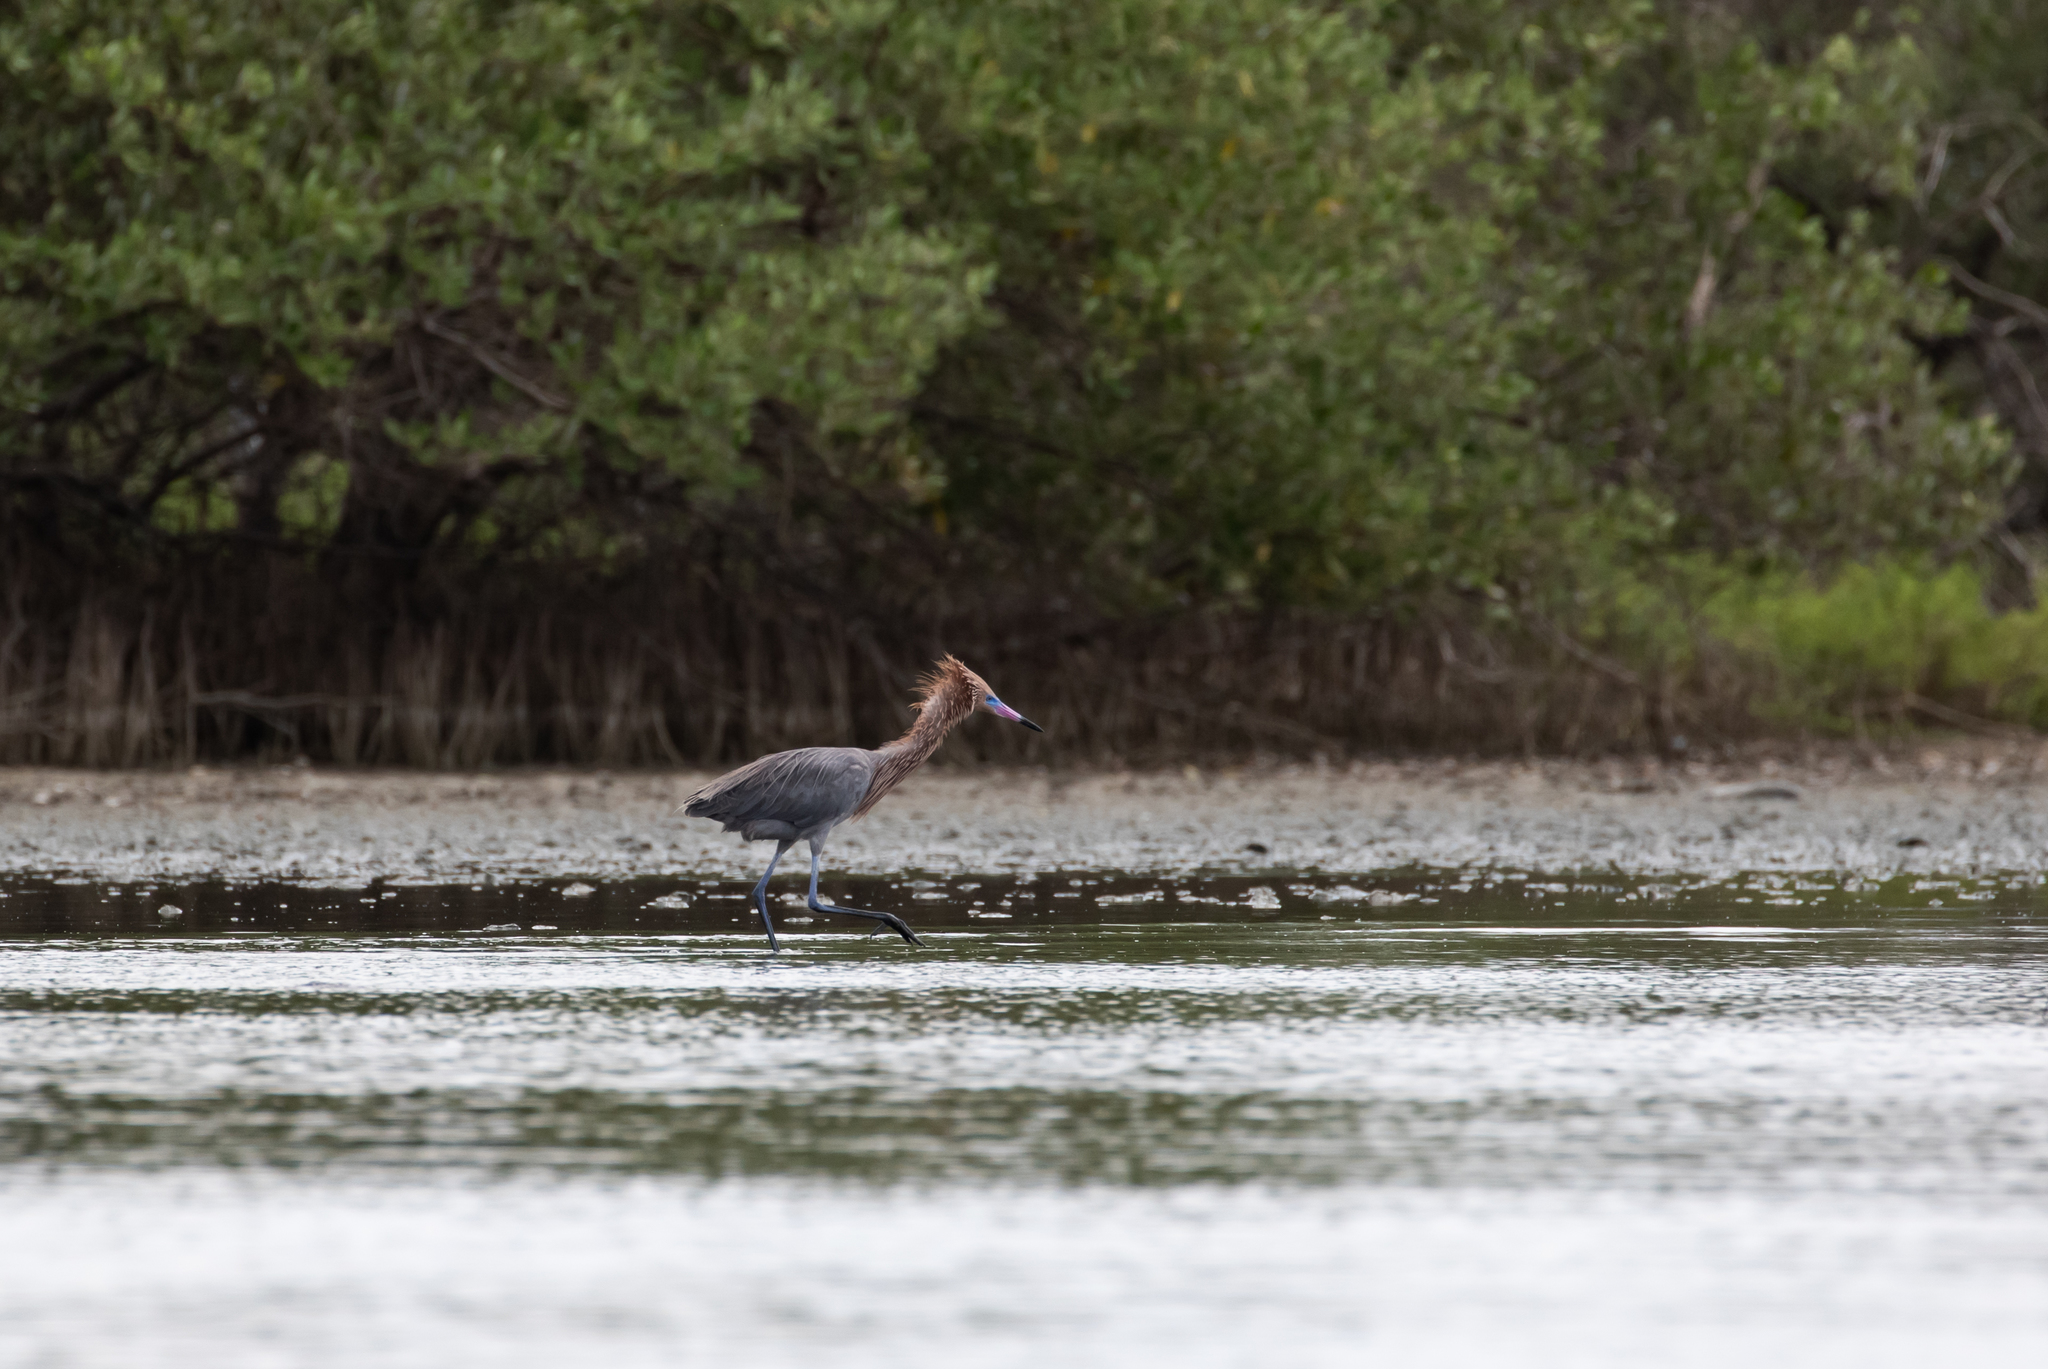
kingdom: Animalia
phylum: Chordata
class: Aves
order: Pelecaniformes
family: Ardeidae
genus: Egretta
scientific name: Egretta rufescens
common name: Reddish egret
